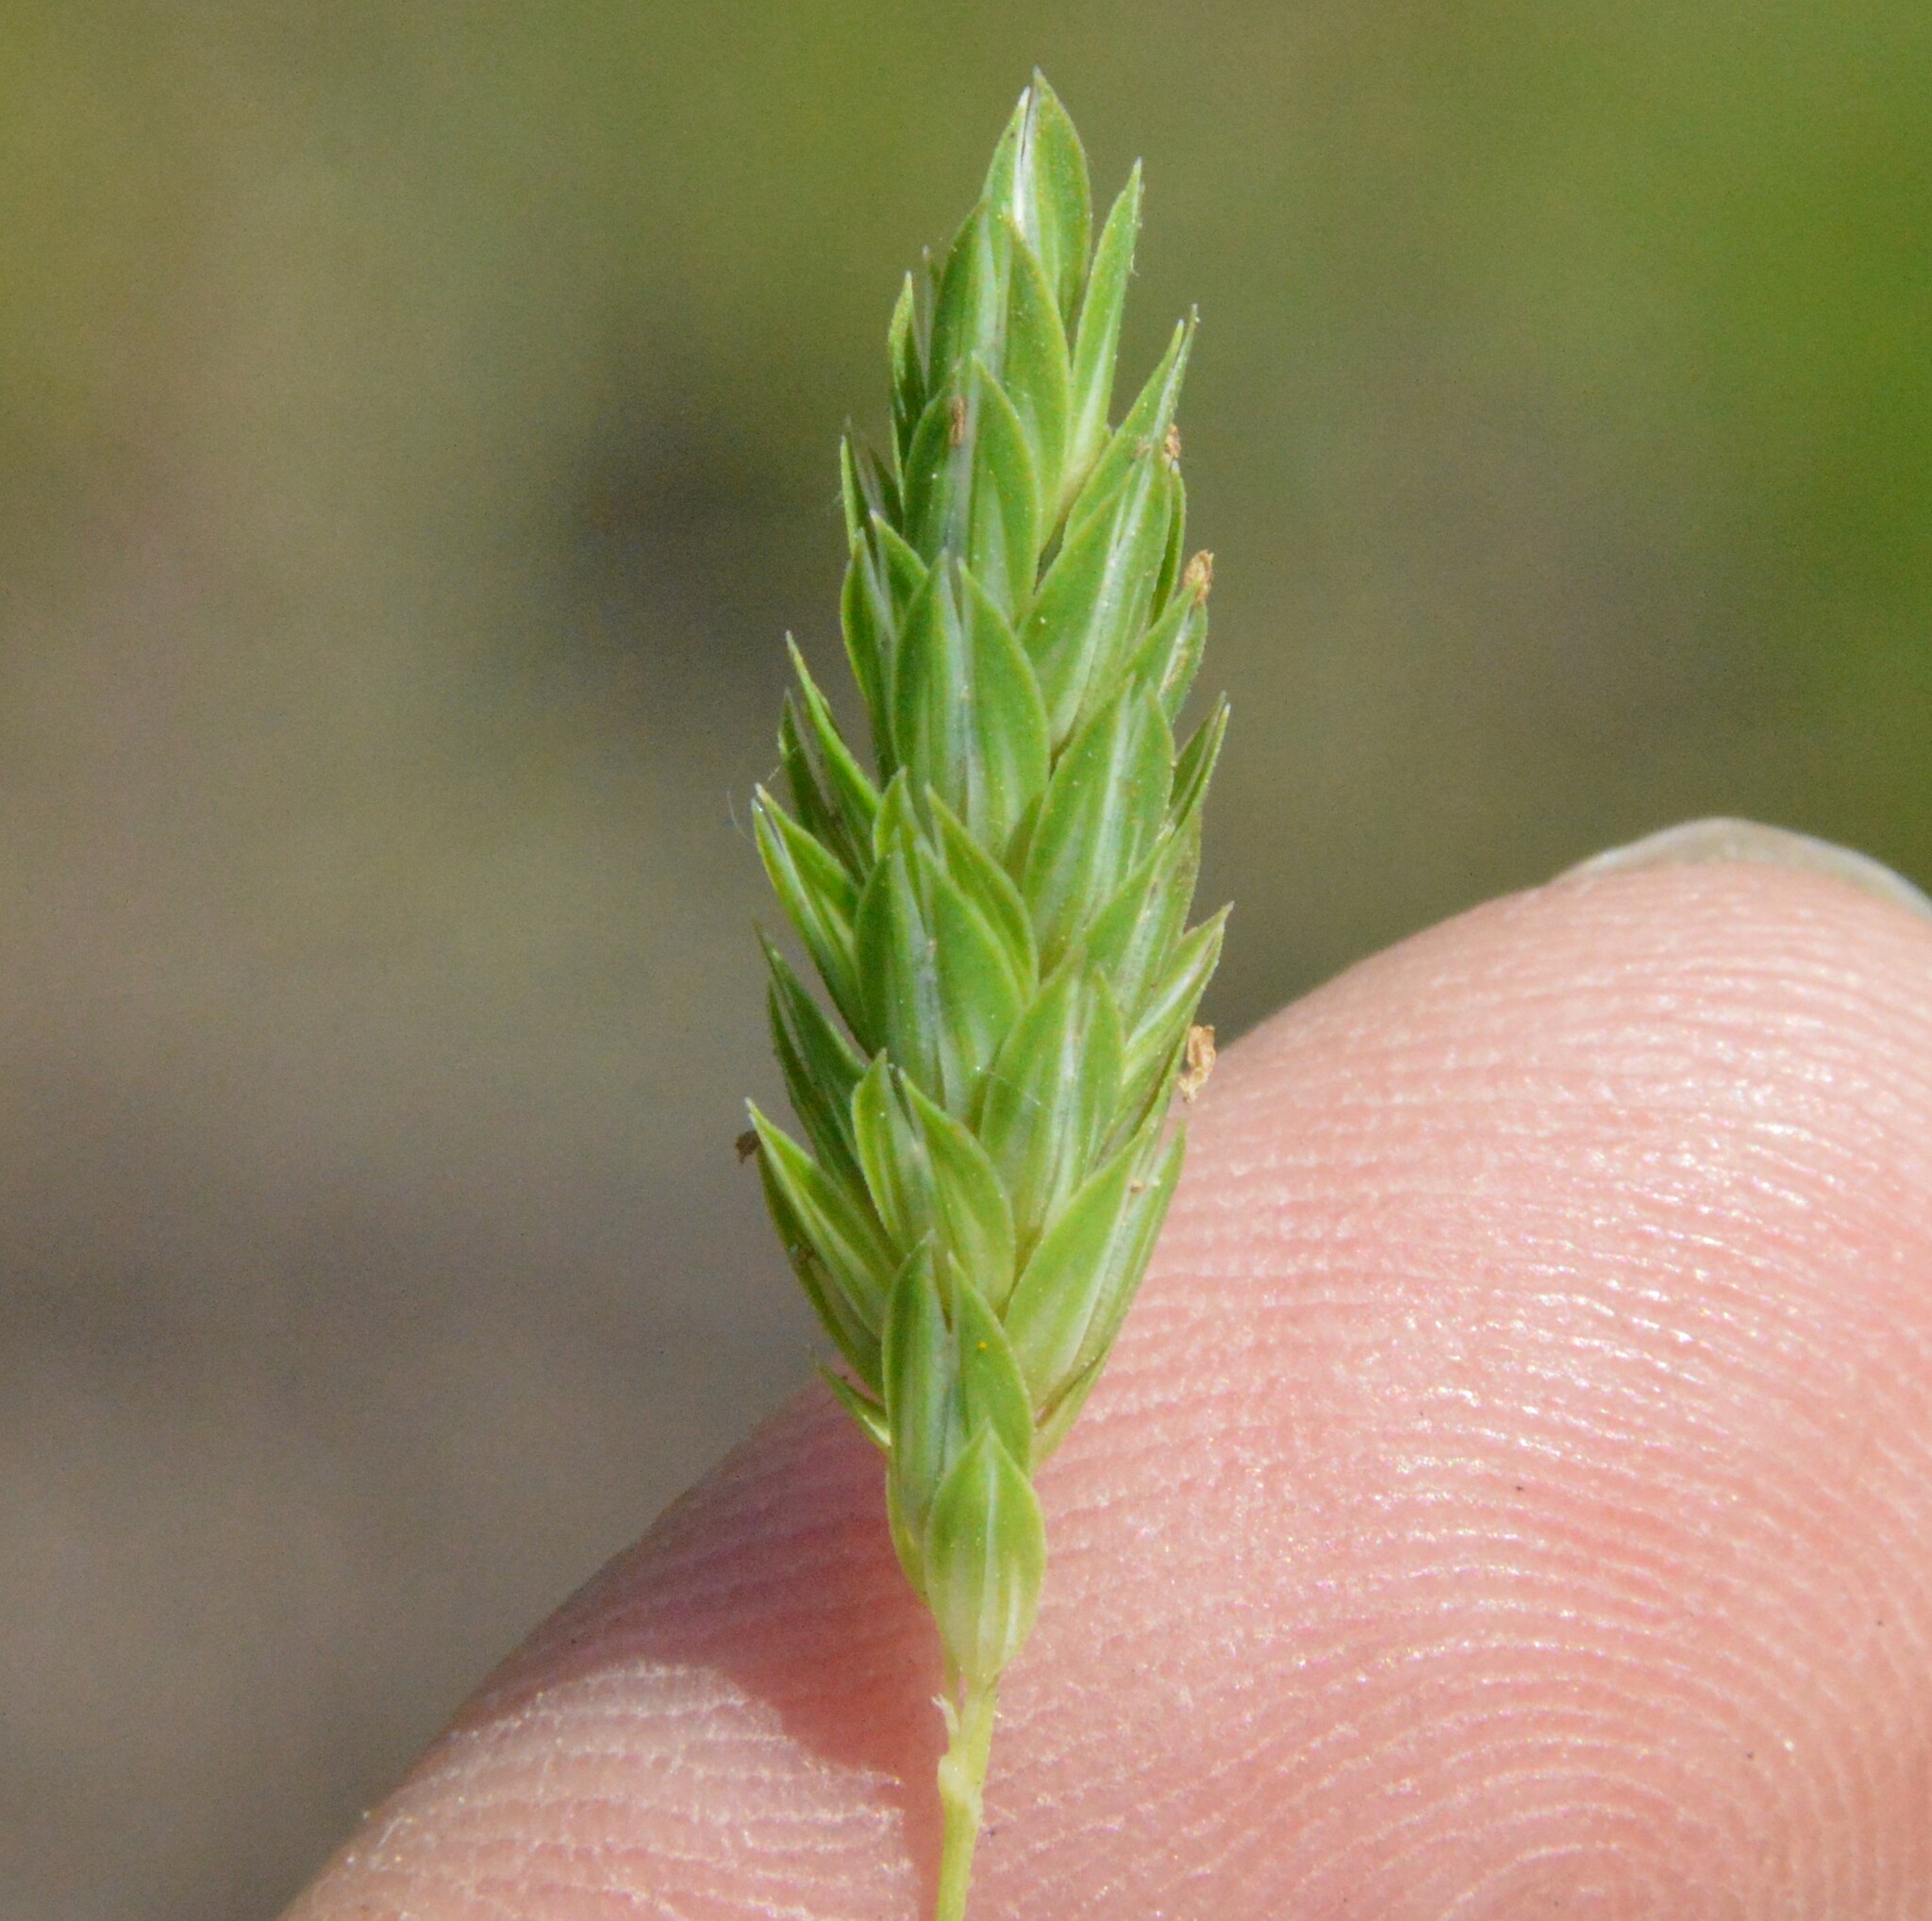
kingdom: Plantae
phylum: Tracheophyta
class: Liliopsida
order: Poales
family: Poaceae
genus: Phalaris
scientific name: Phalaris caroliniana
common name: May grass
